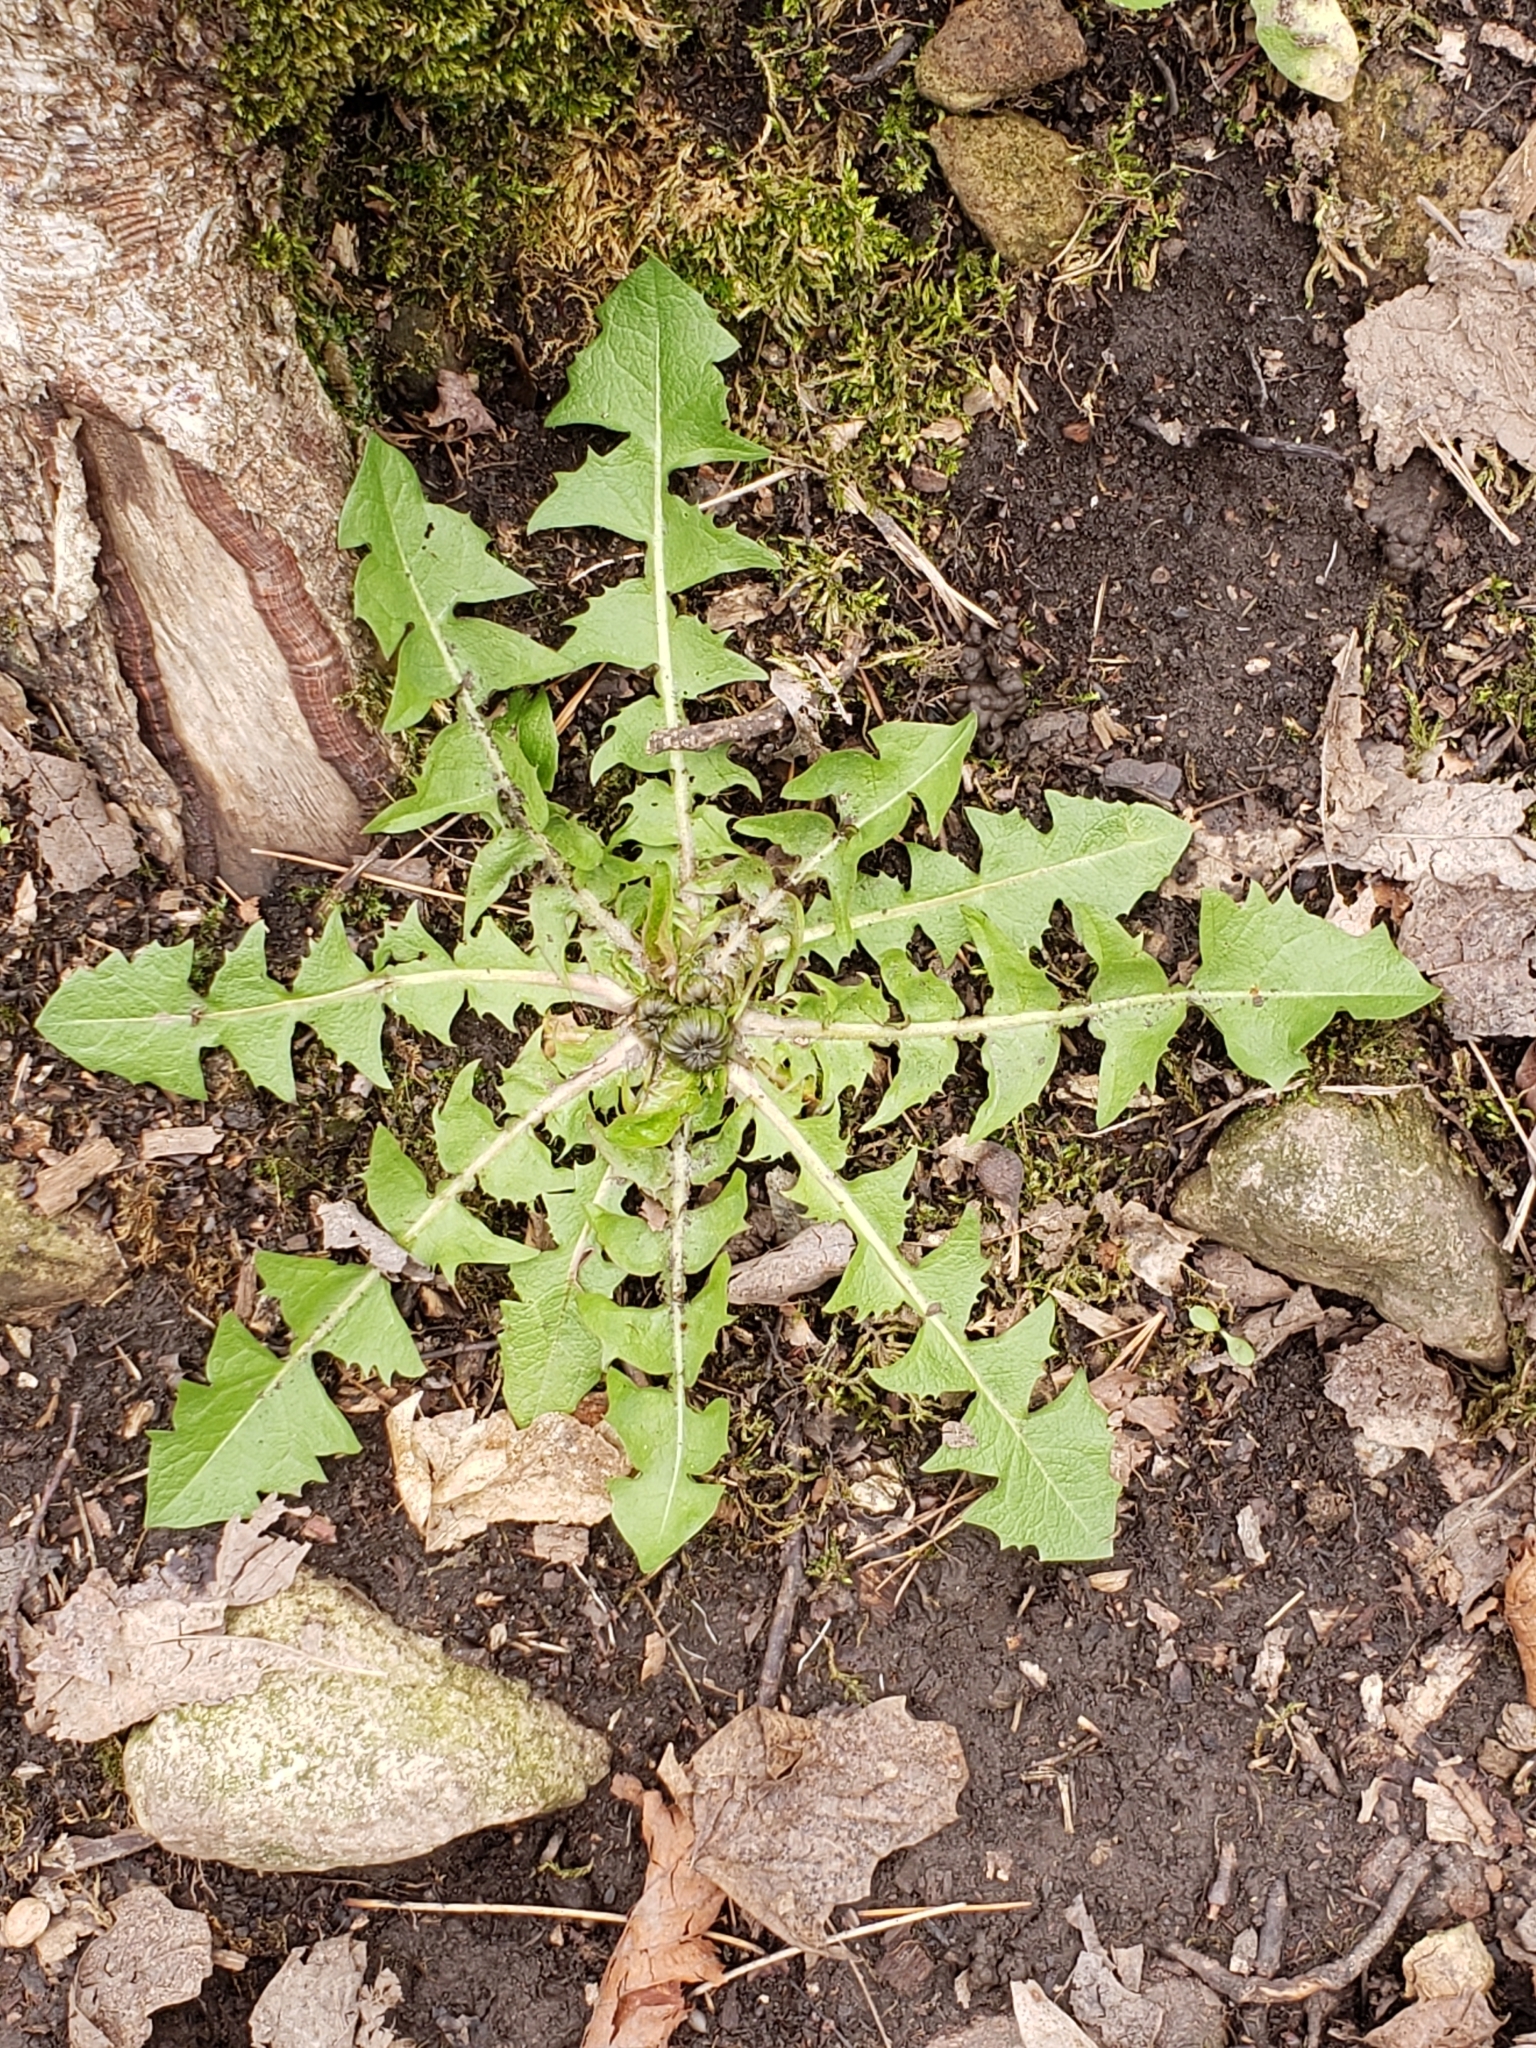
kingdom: Plantae
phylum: Tracheophyta
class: Magnoliopsida
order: Asterales
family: Asteraceae
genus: Taraxacum
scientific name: Taraxacum officinale
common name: Common dandelion
